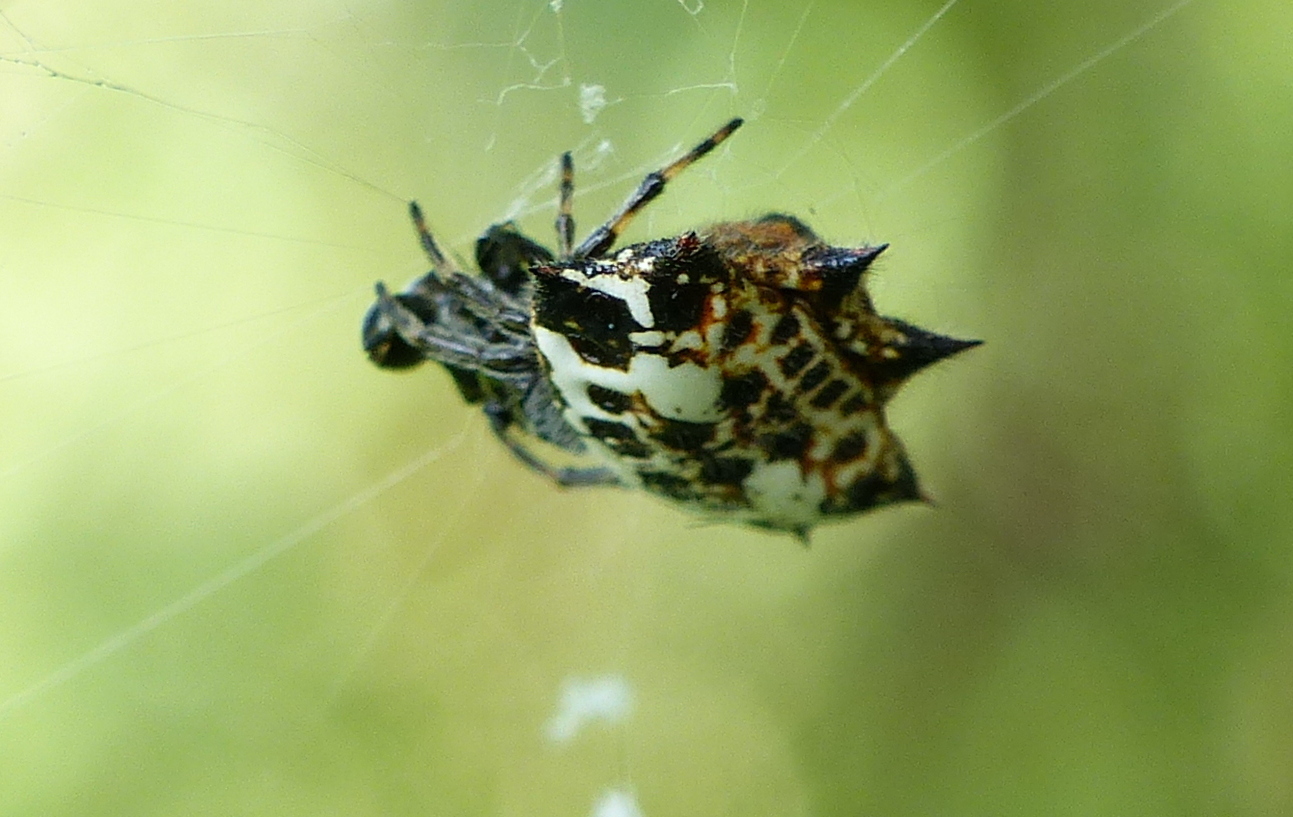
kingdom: Animalia
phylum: Arthropoda
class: Arachnida
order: Araneae
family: Araneidae
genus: Gasteracantha
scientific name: Gasteracantha cancriformis
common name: Orb weavers
